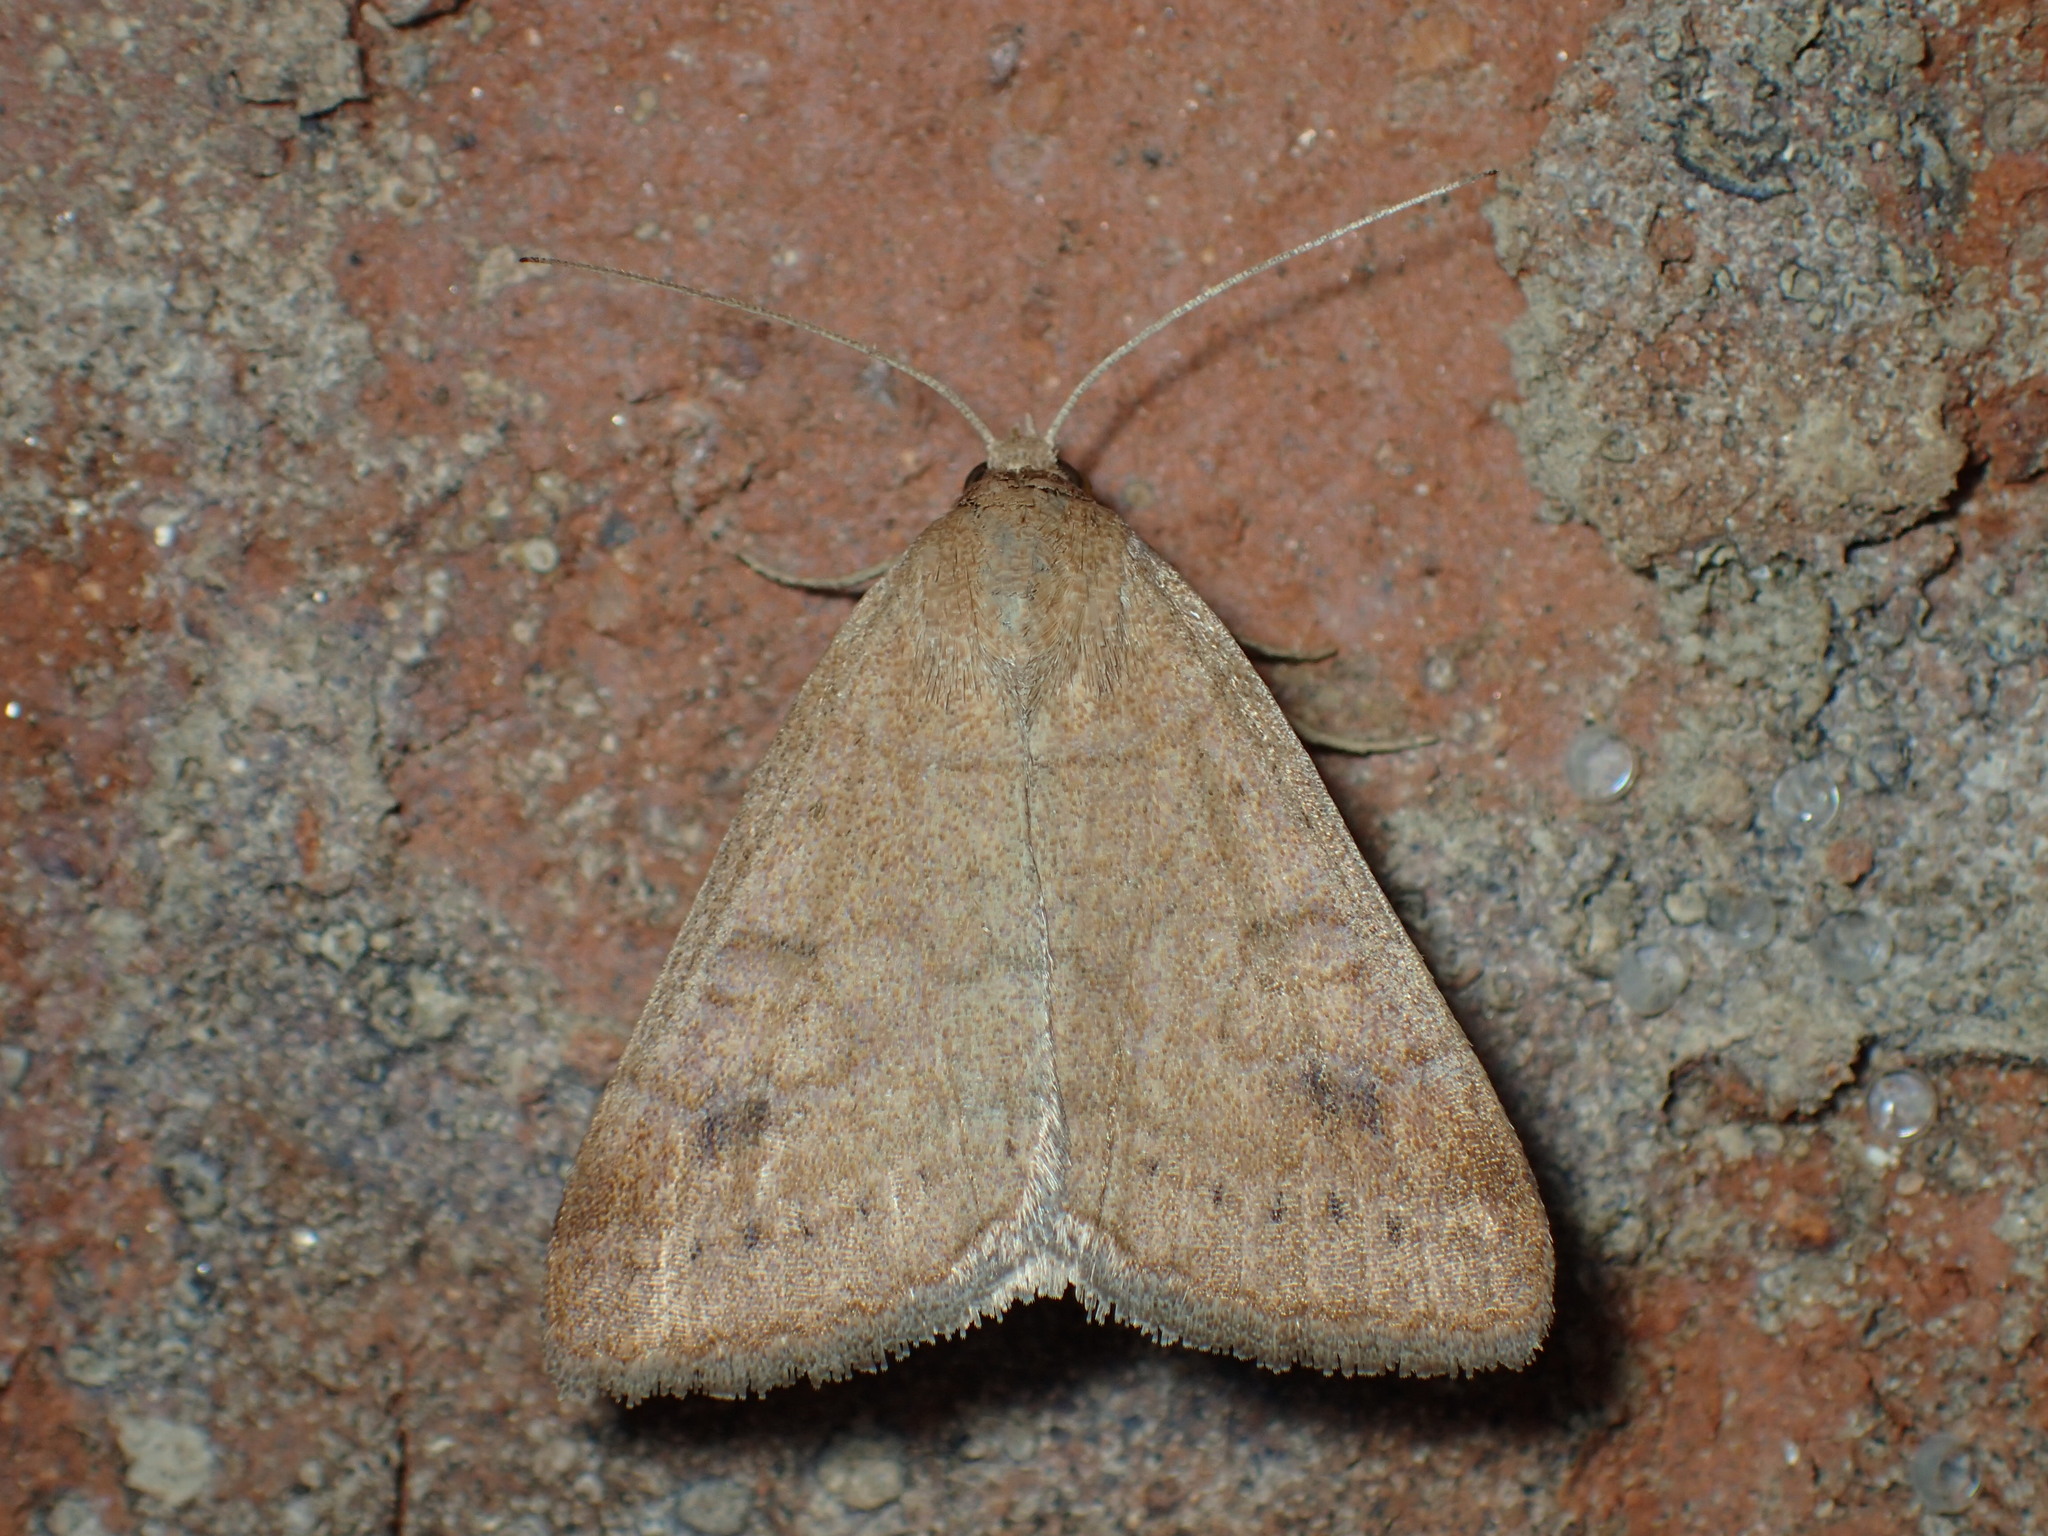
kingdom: Animalia
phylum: Arthropoda
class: Insecta
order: Lepidoptera
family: Erebidae
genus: Caenurgia
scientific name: Caenurgia chloropha
